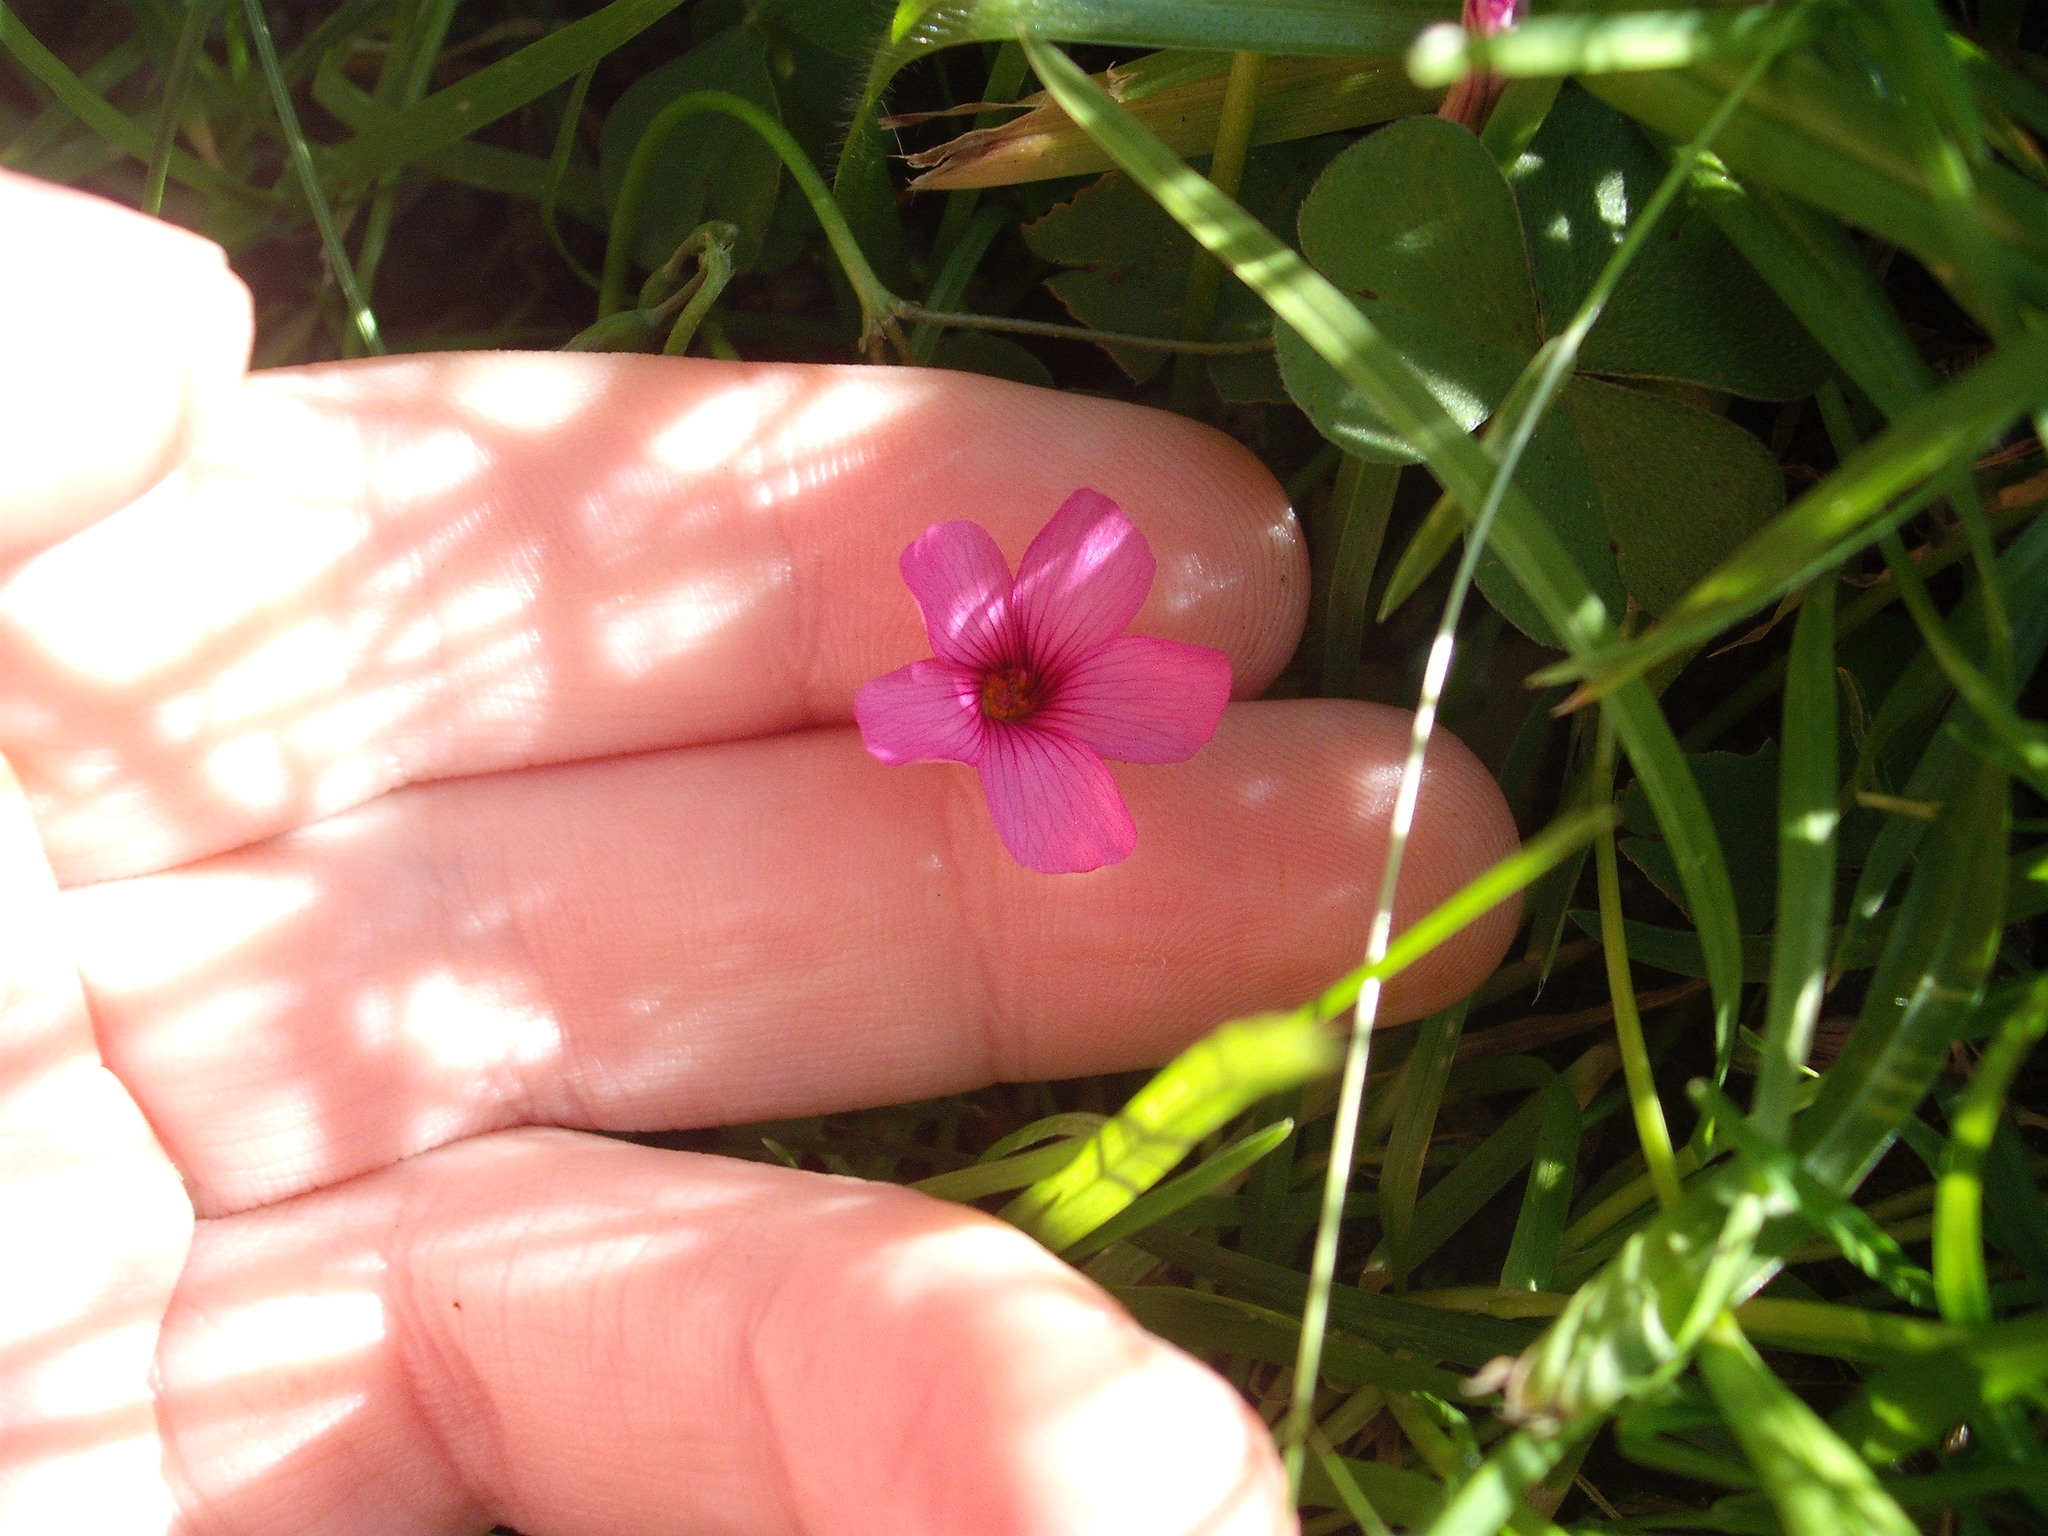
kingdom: Plantae
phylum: Tracheophyta
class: Magnoliopsida
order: Oxalidales
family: Oxalidaceae
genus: Oxalis
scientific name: Oxalis articulata
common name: Pink-sorrel
